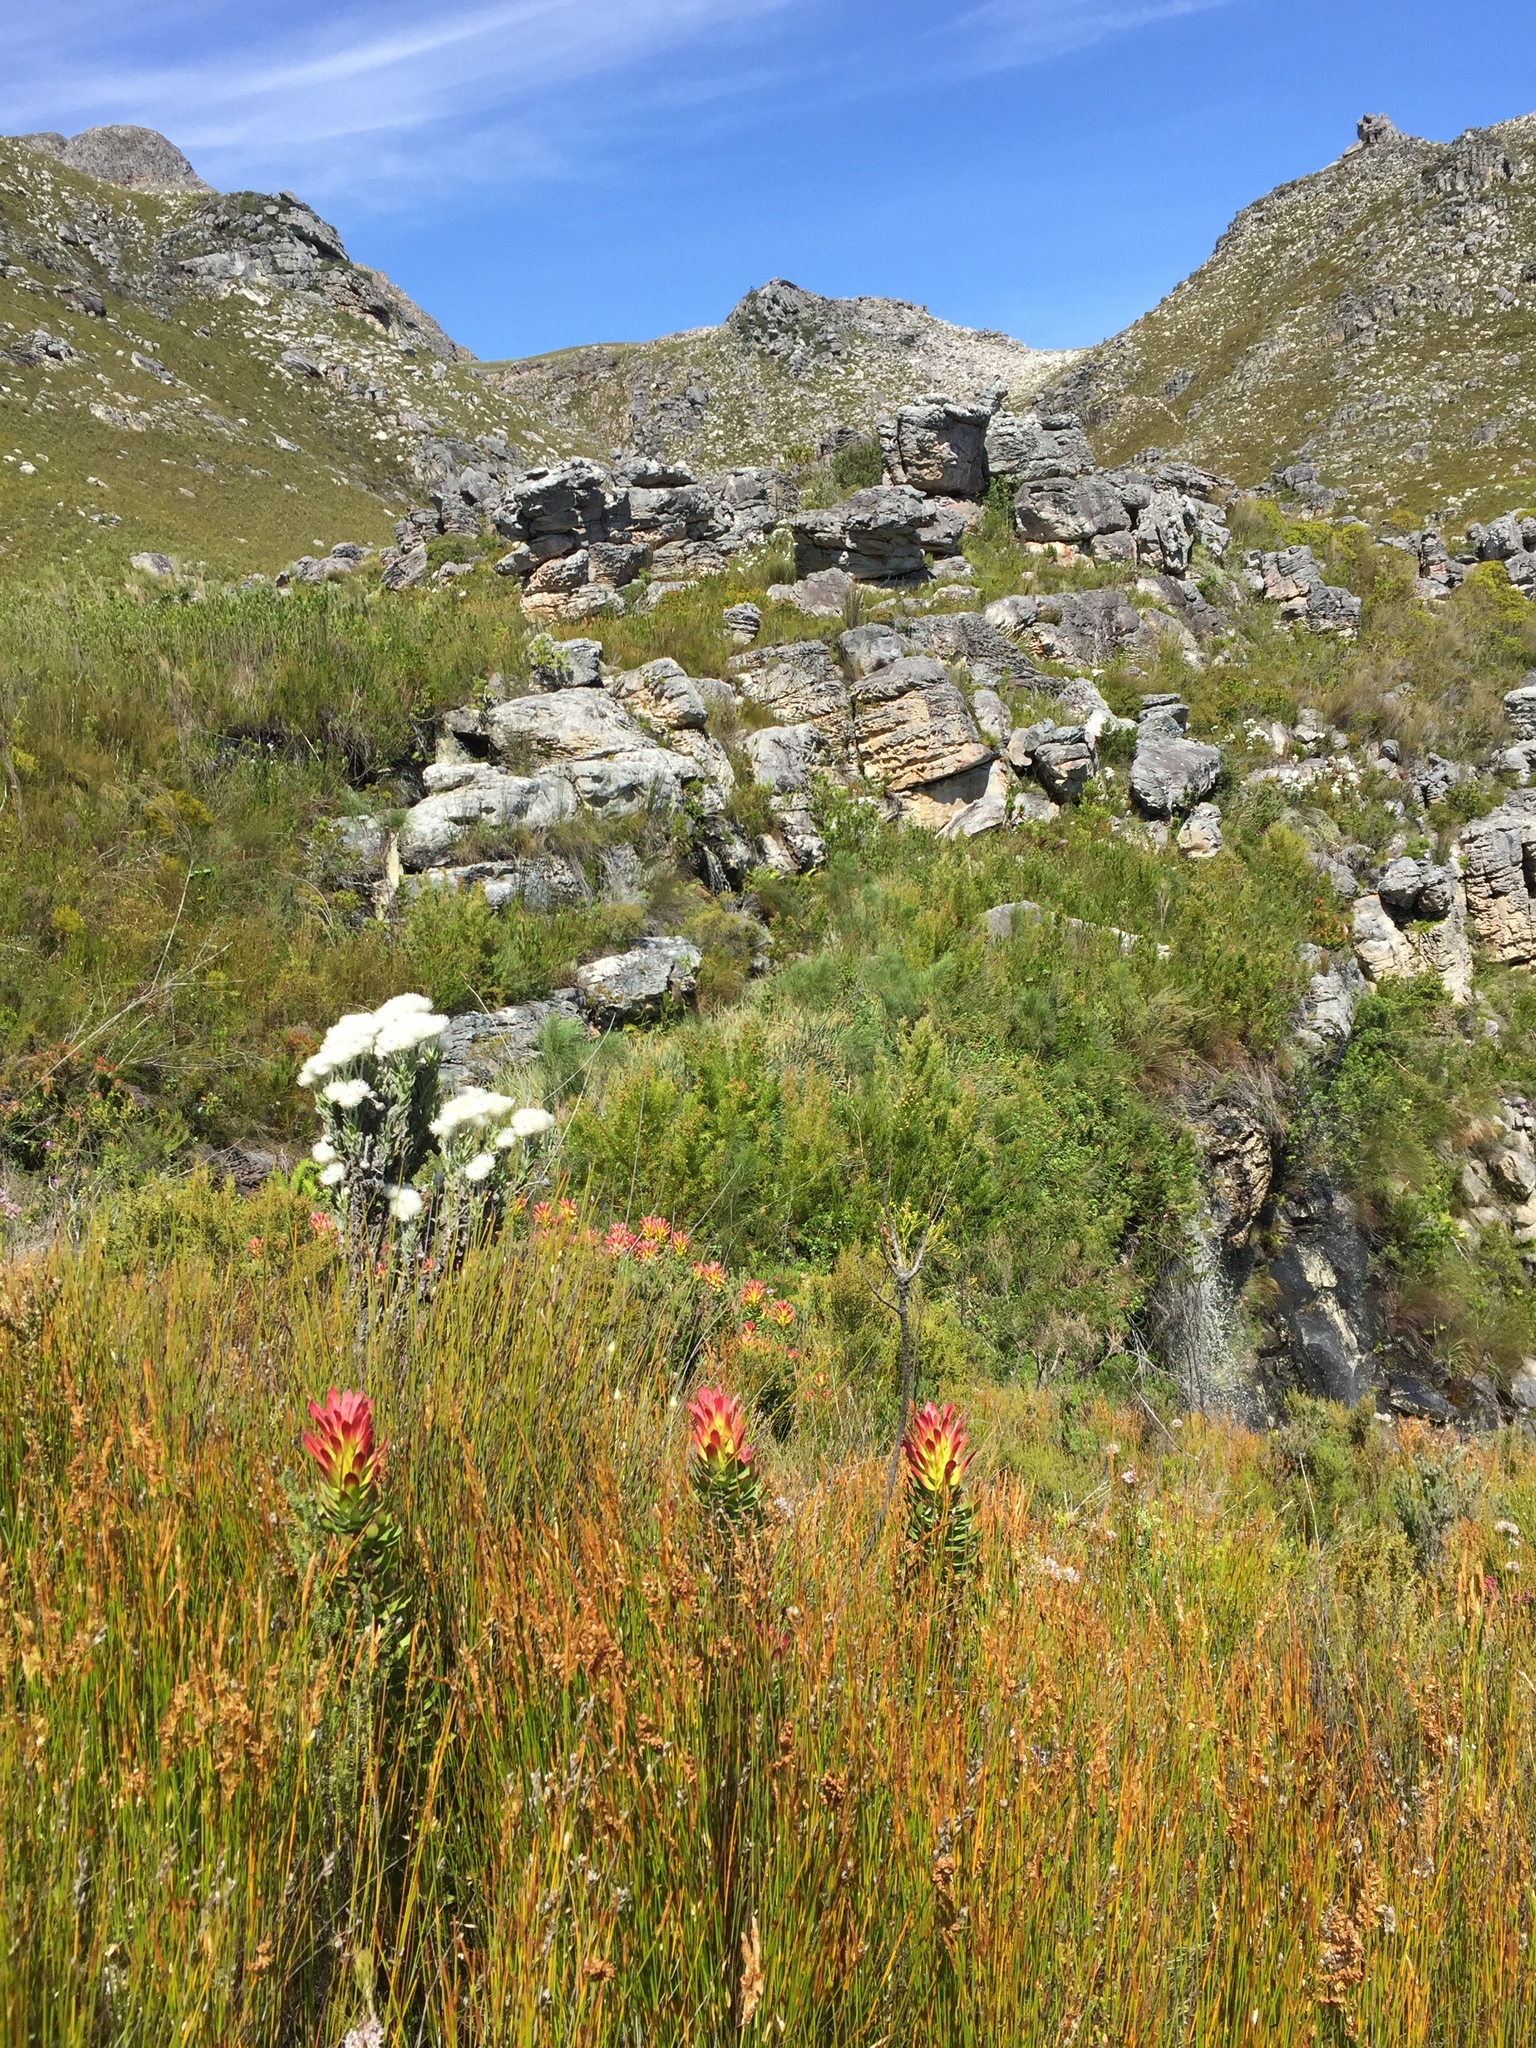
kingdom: Plantae
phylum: Tracheophyta
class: Magnoliopsida
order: Proteales
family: Proteaceae
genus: Mimetes
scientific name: Mimetes cucullatus
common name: Common pagoda
